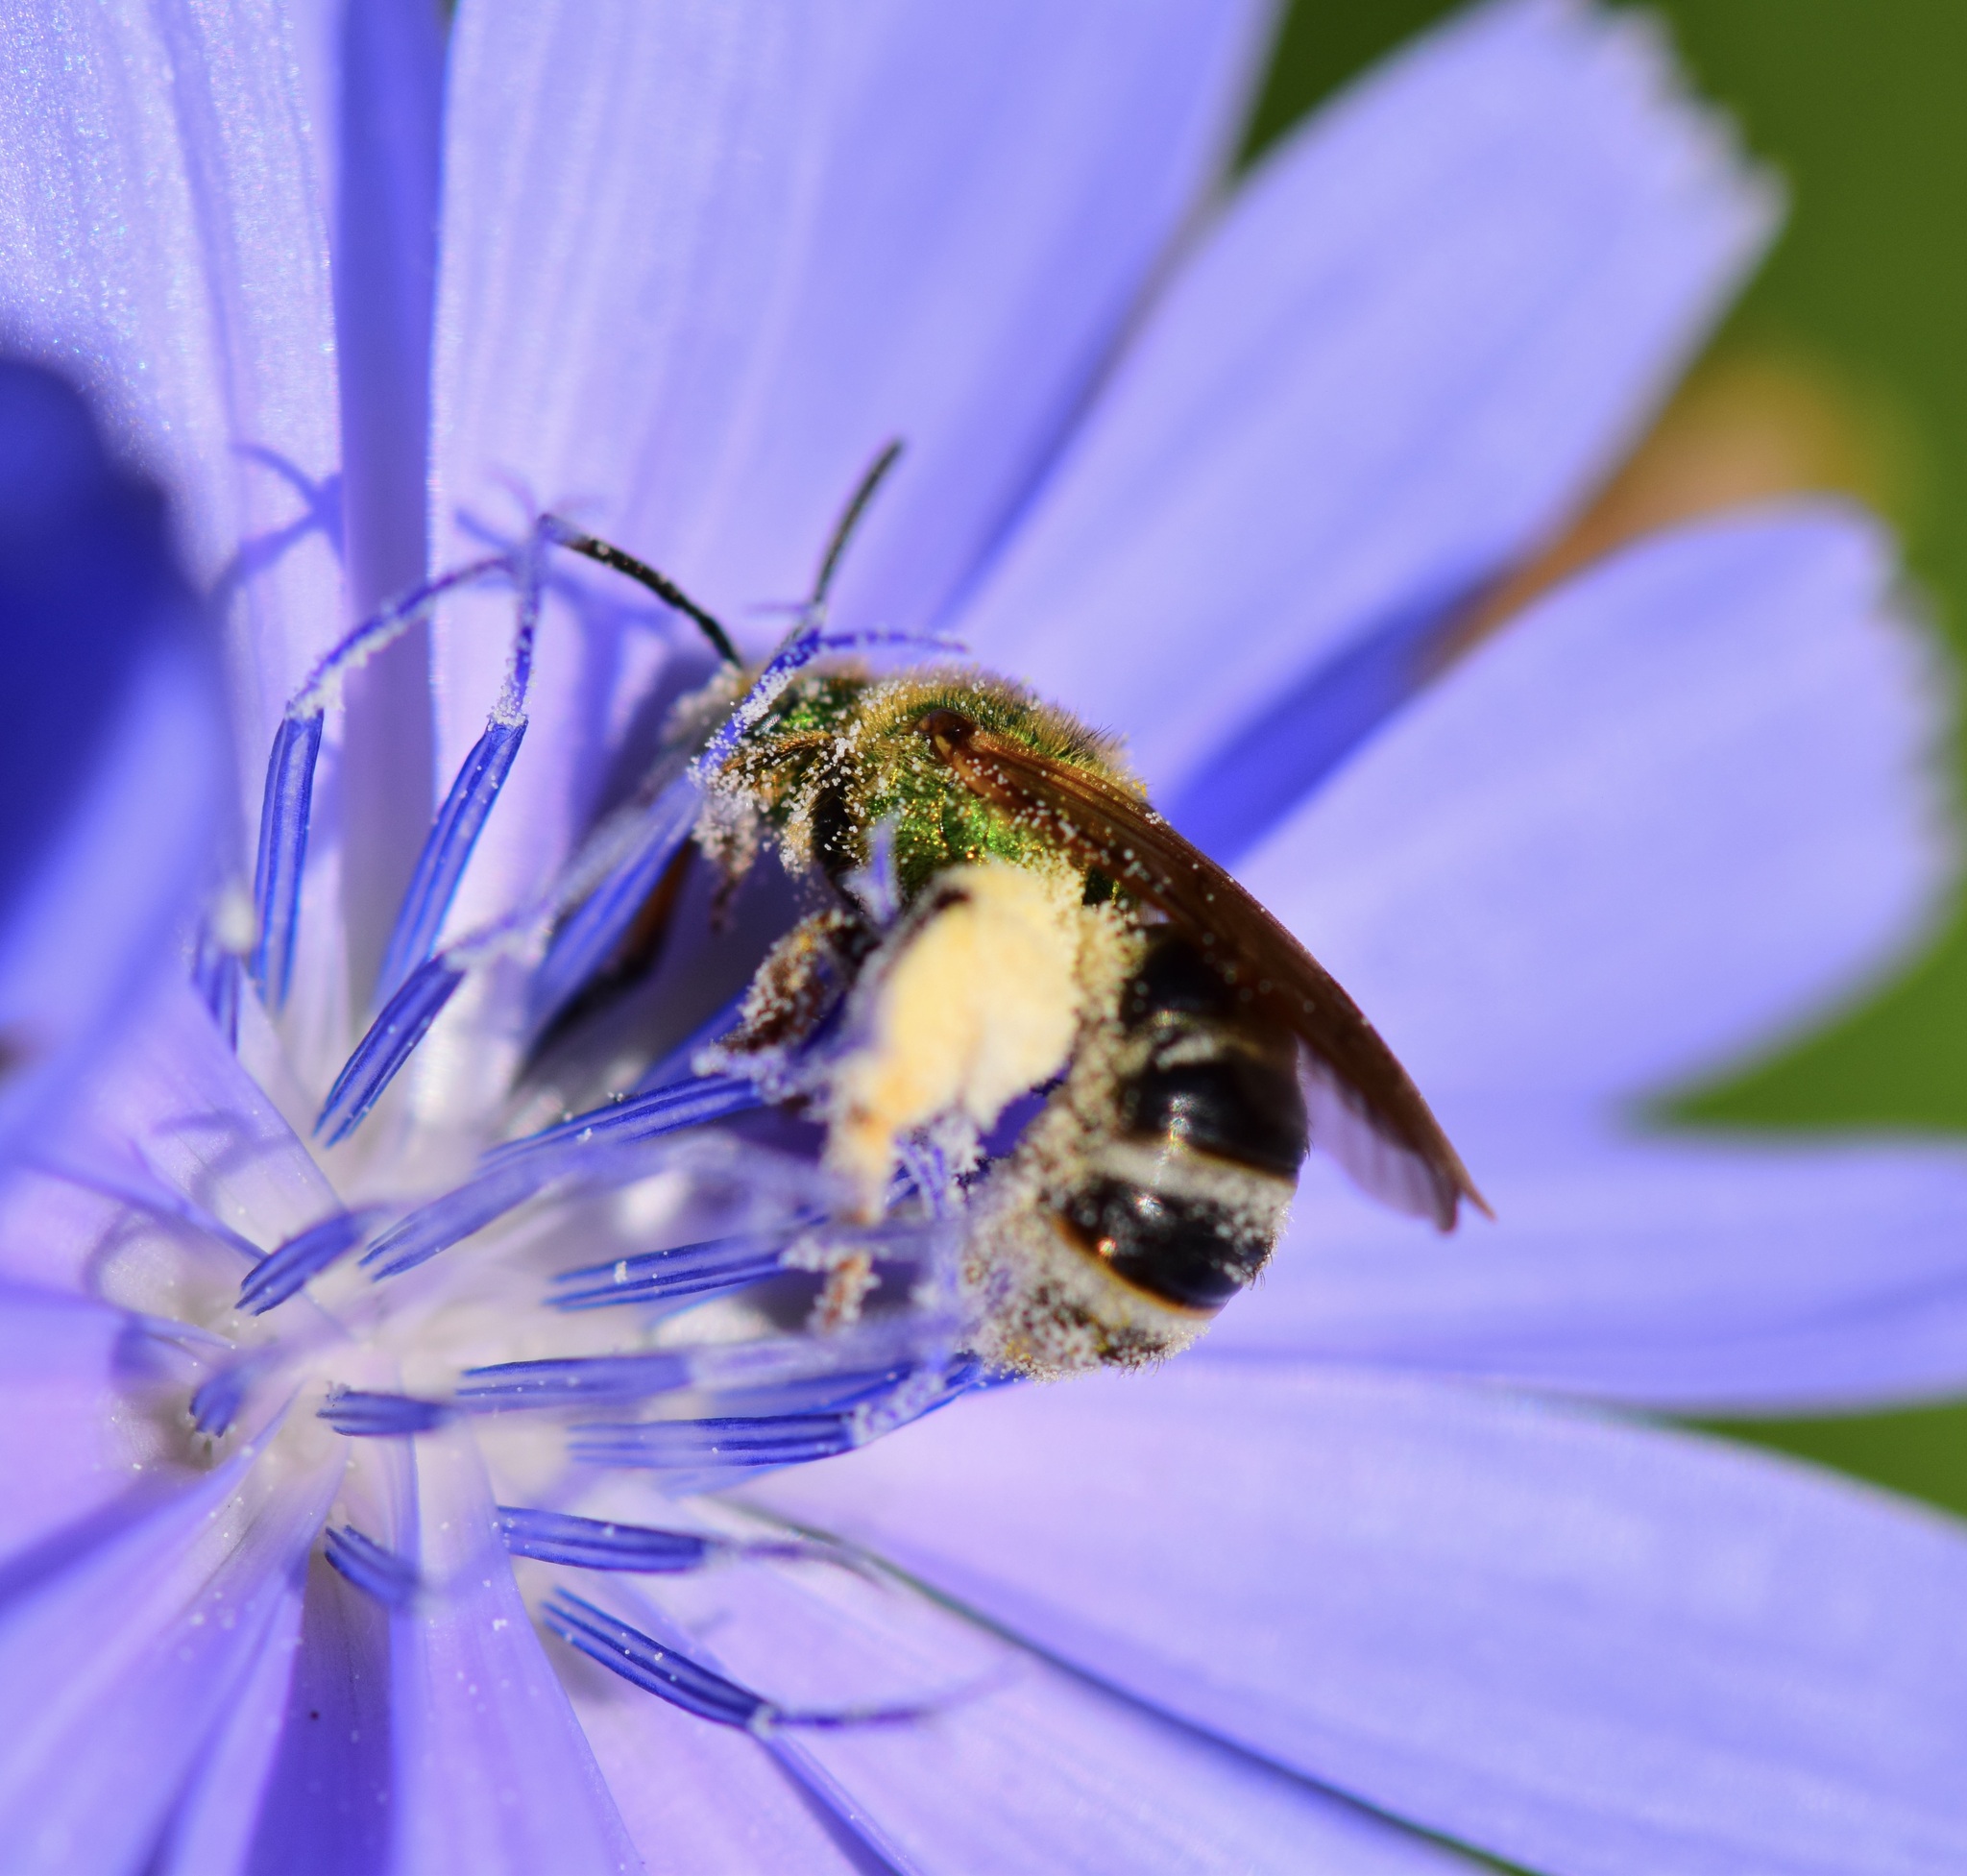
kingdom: Animalia
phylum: Arthropoda
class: Insecta
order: Hymenoptera
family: Halictidae
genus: Agapostemon
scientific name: Agapostemon virescens
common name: Bicolored striped sweat bee
